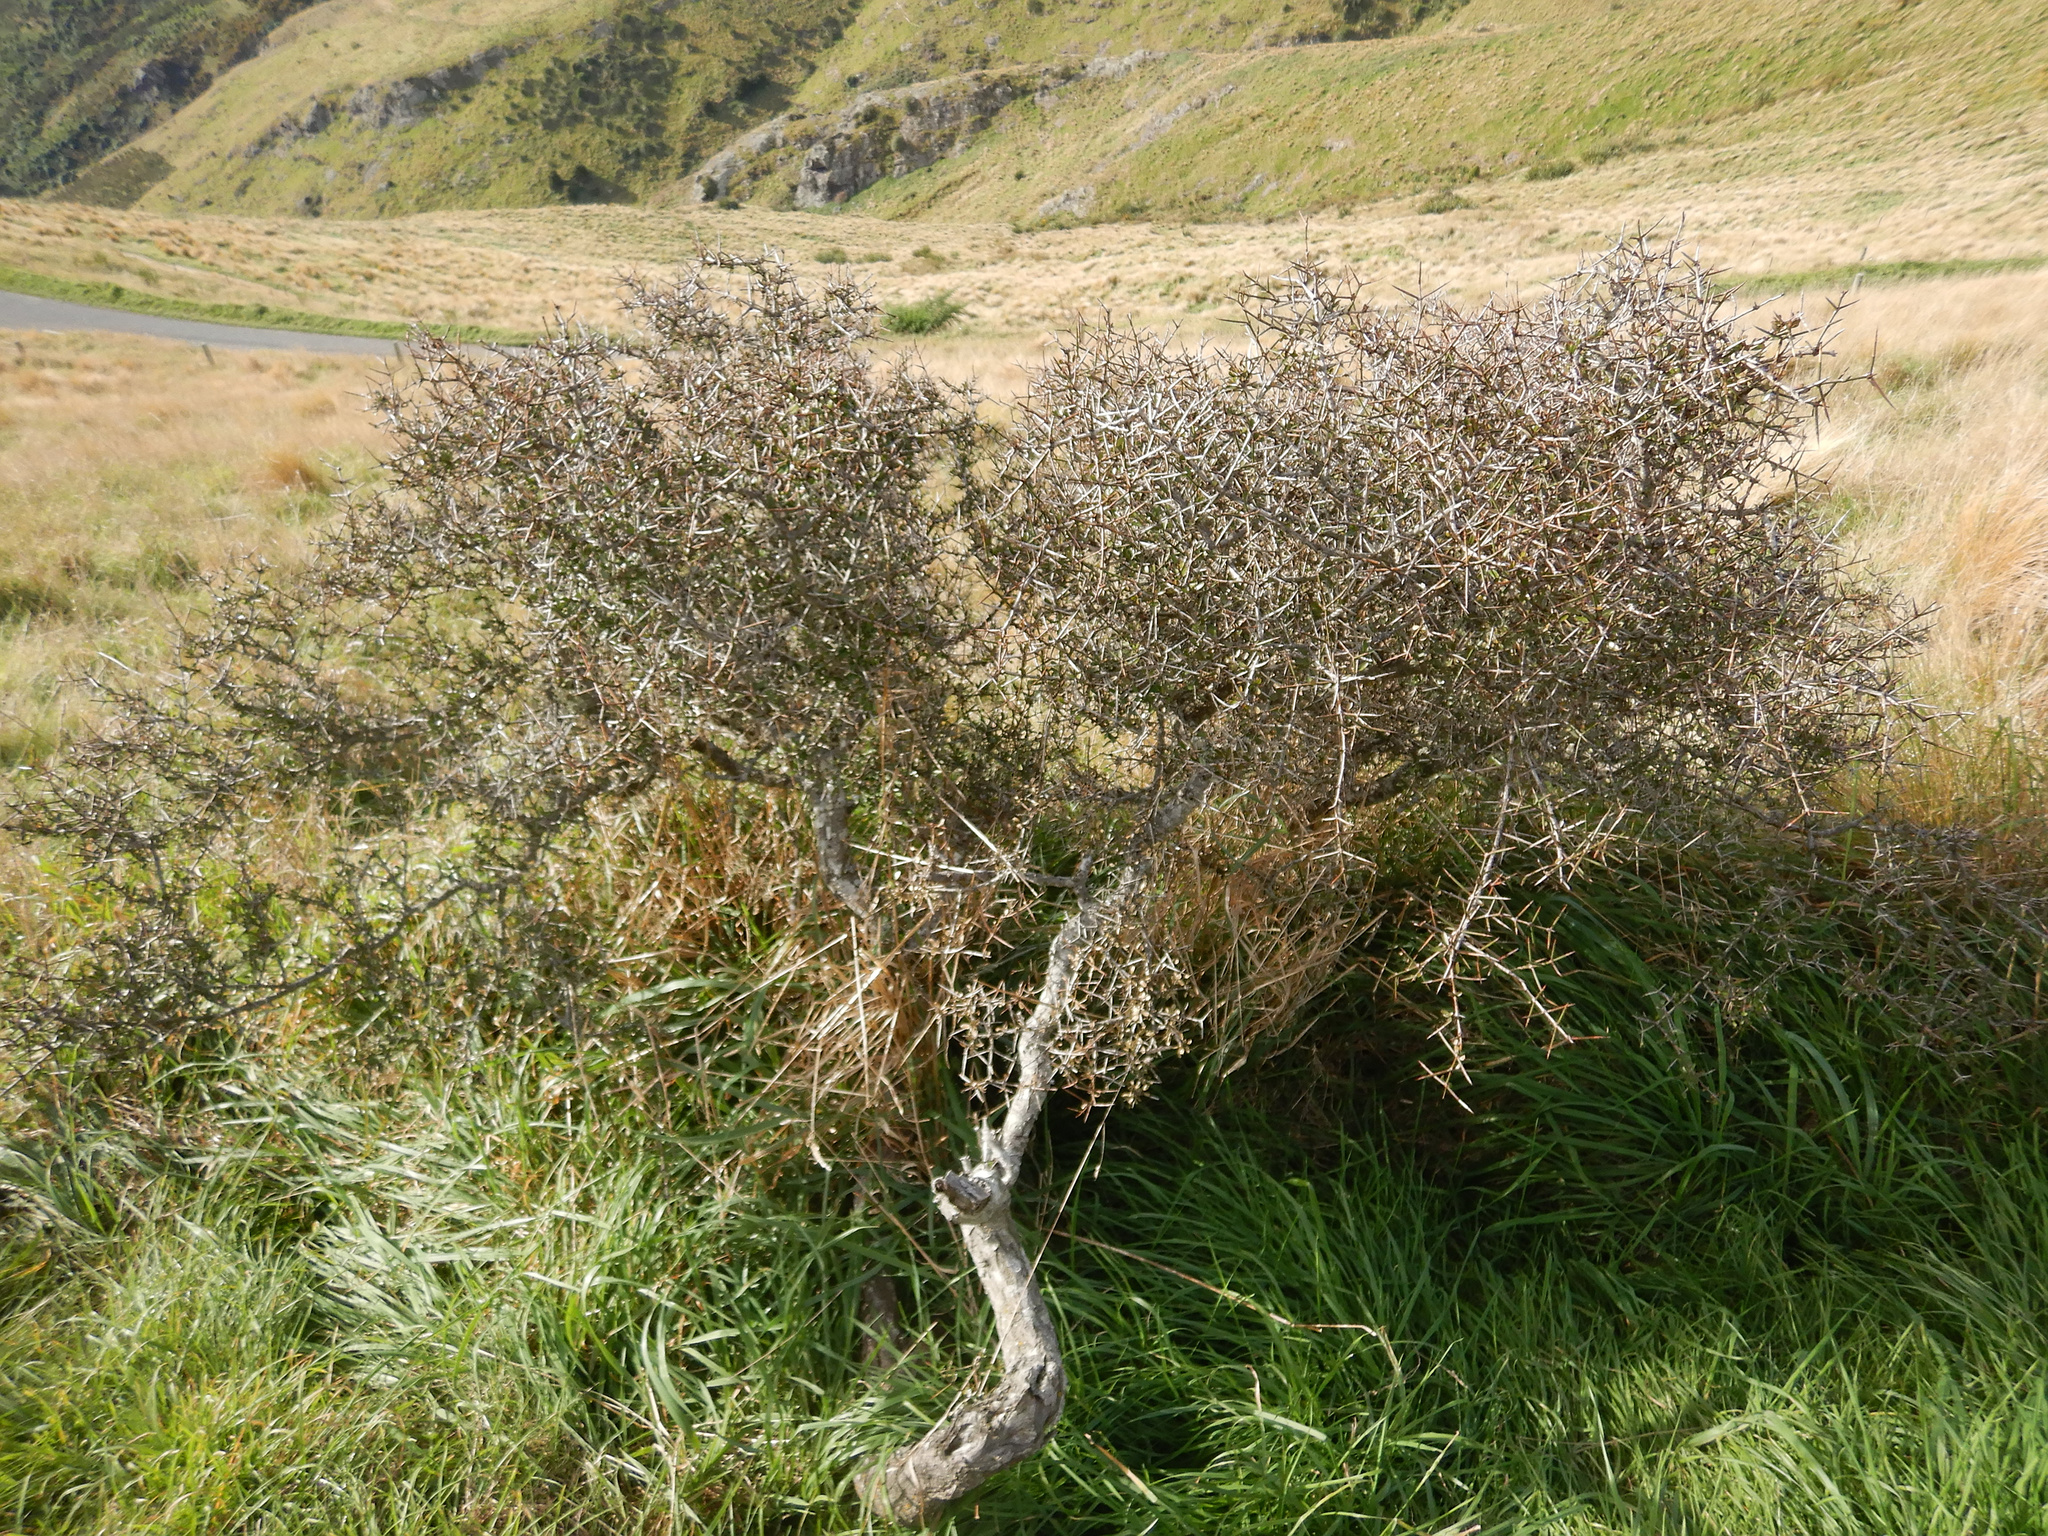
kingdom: Plantae
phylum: Tracheophyta
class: Magnoliopsida
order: Rosales
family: Rhamnaceae
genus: Discaria
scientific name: Discaria toumatou
